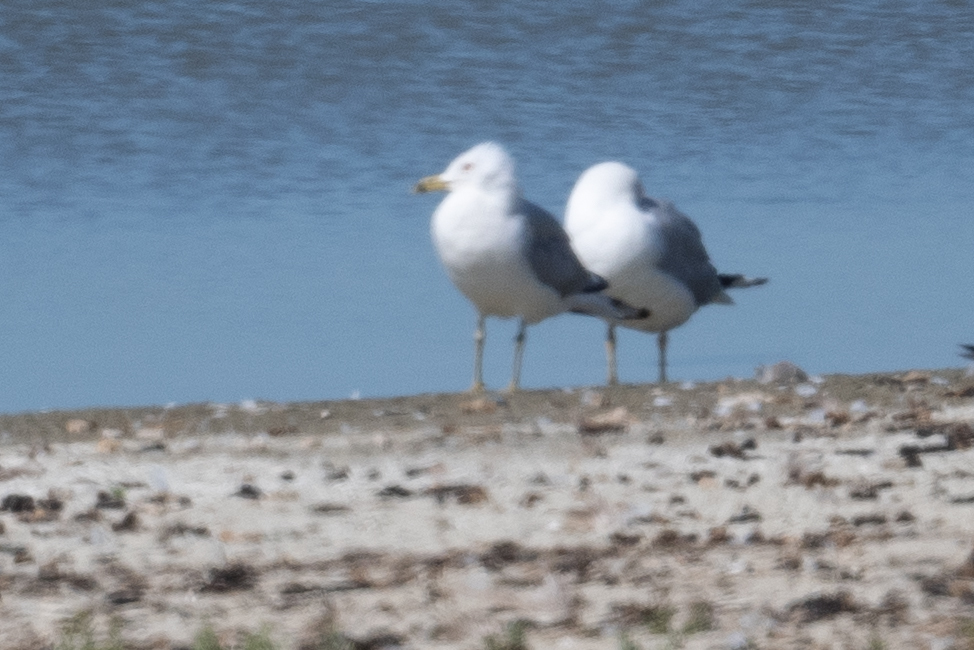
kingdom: Animalia
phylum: Chordata
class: Aves
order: Charadriiformes
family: Laridae
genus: Larus
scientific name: Larus californicus
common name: California gull
